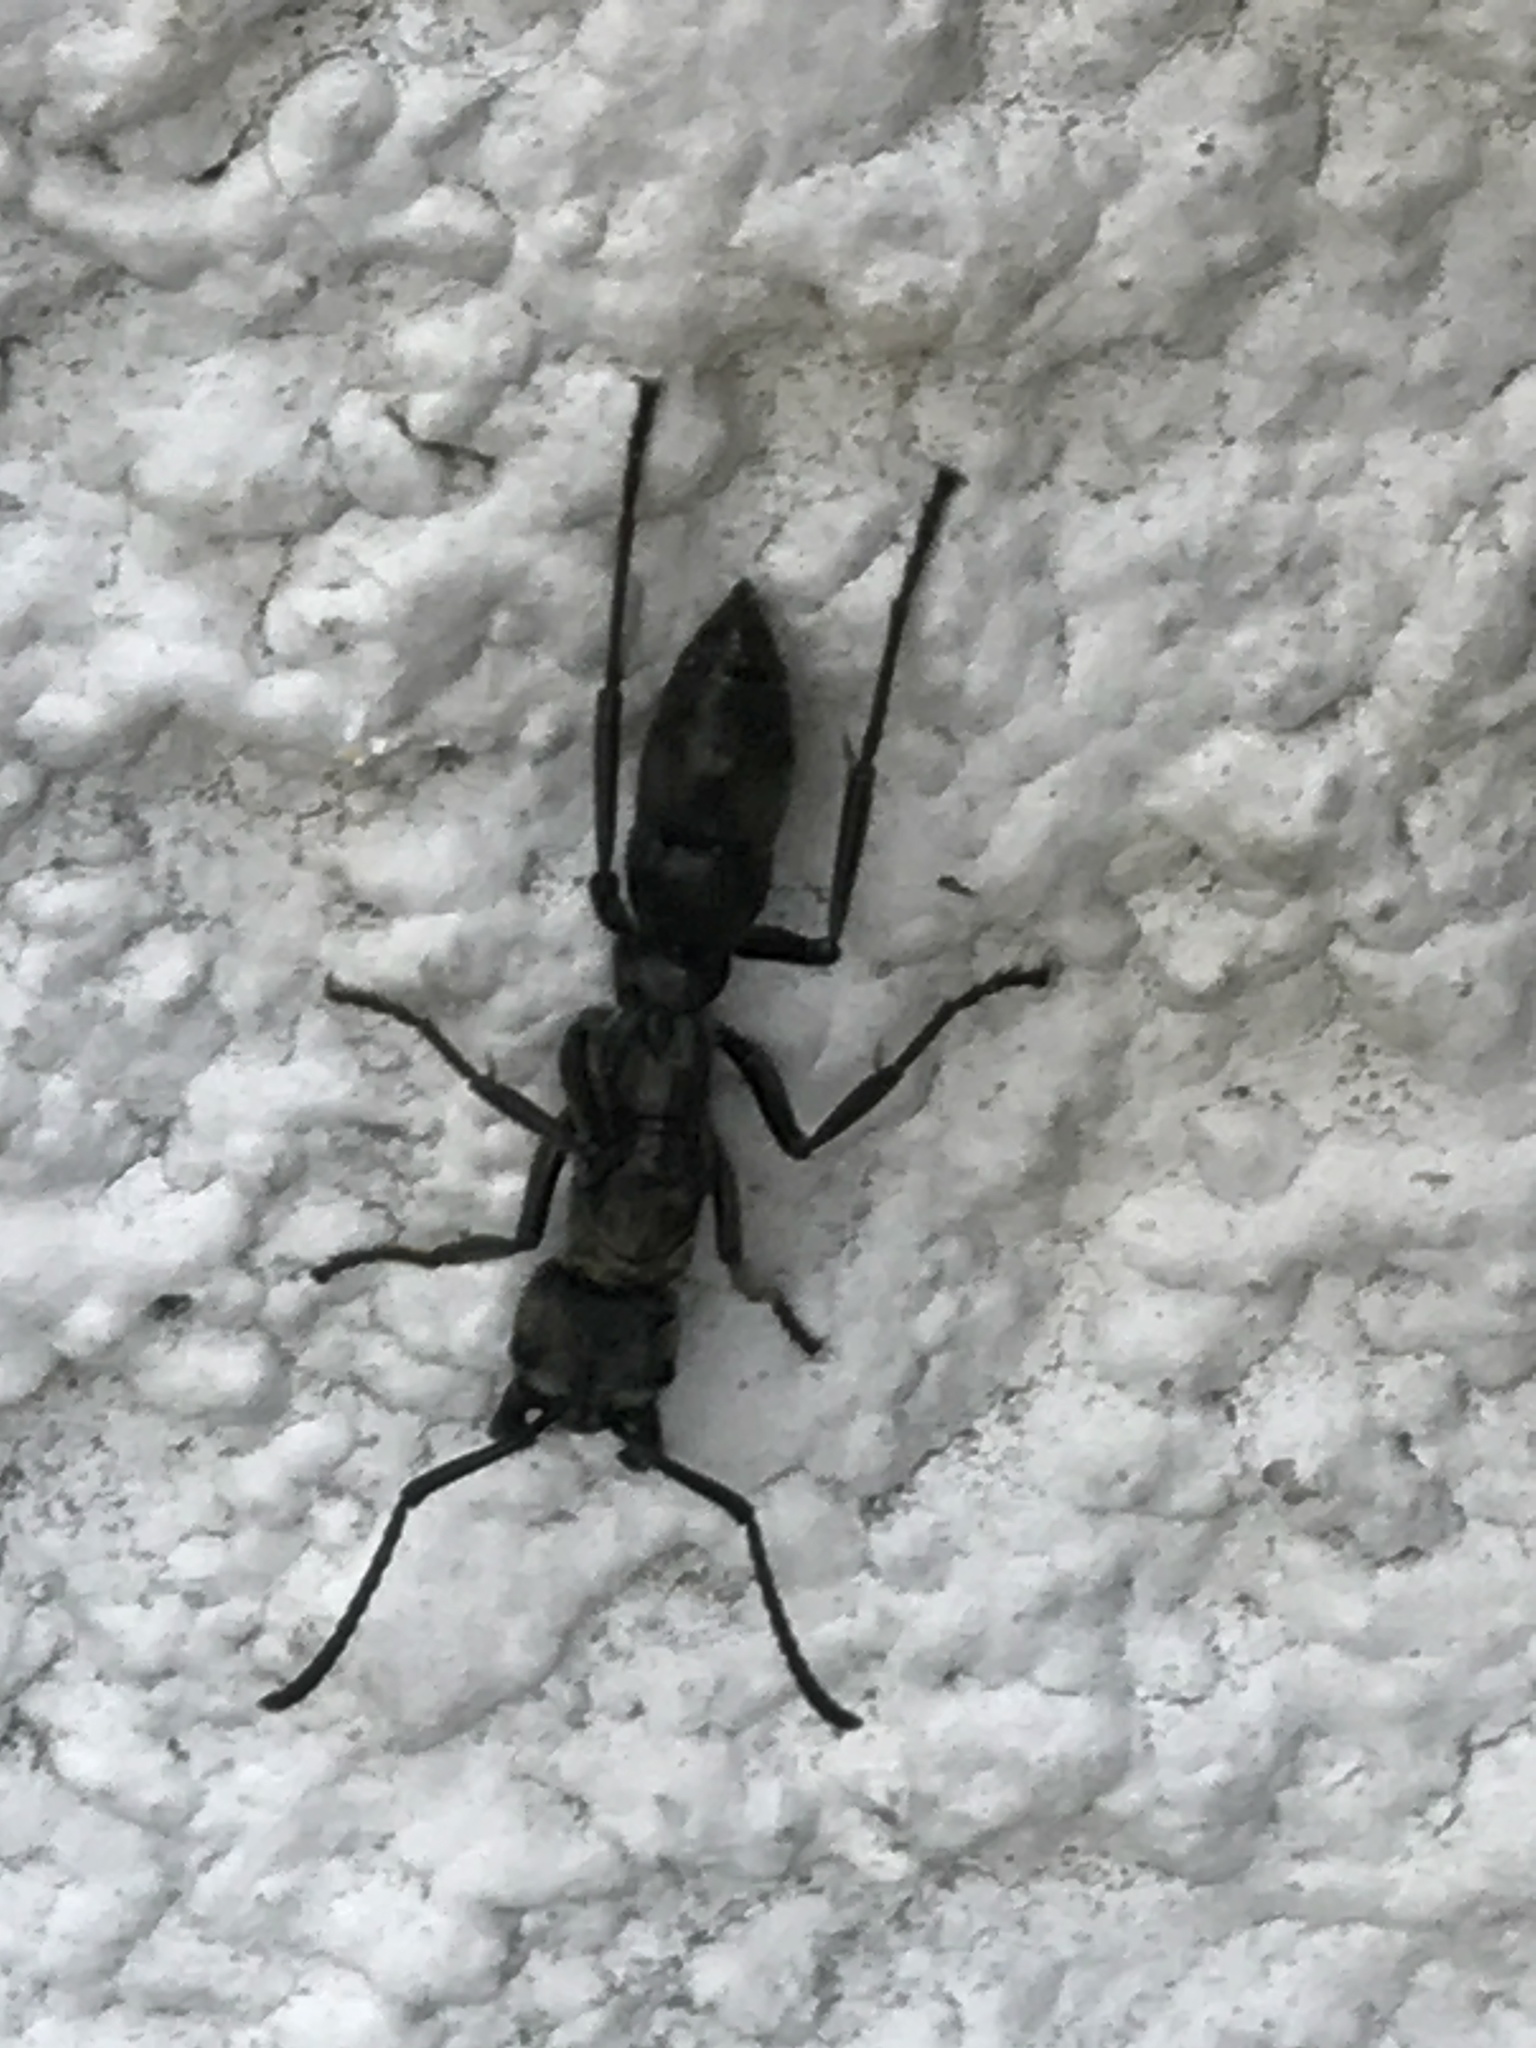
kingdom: Animalia
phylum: Arthropoda
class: Insecta
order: Hymenoptera
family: Formicidae
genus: Pachycondyla
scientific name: Pachycondyla villosa
